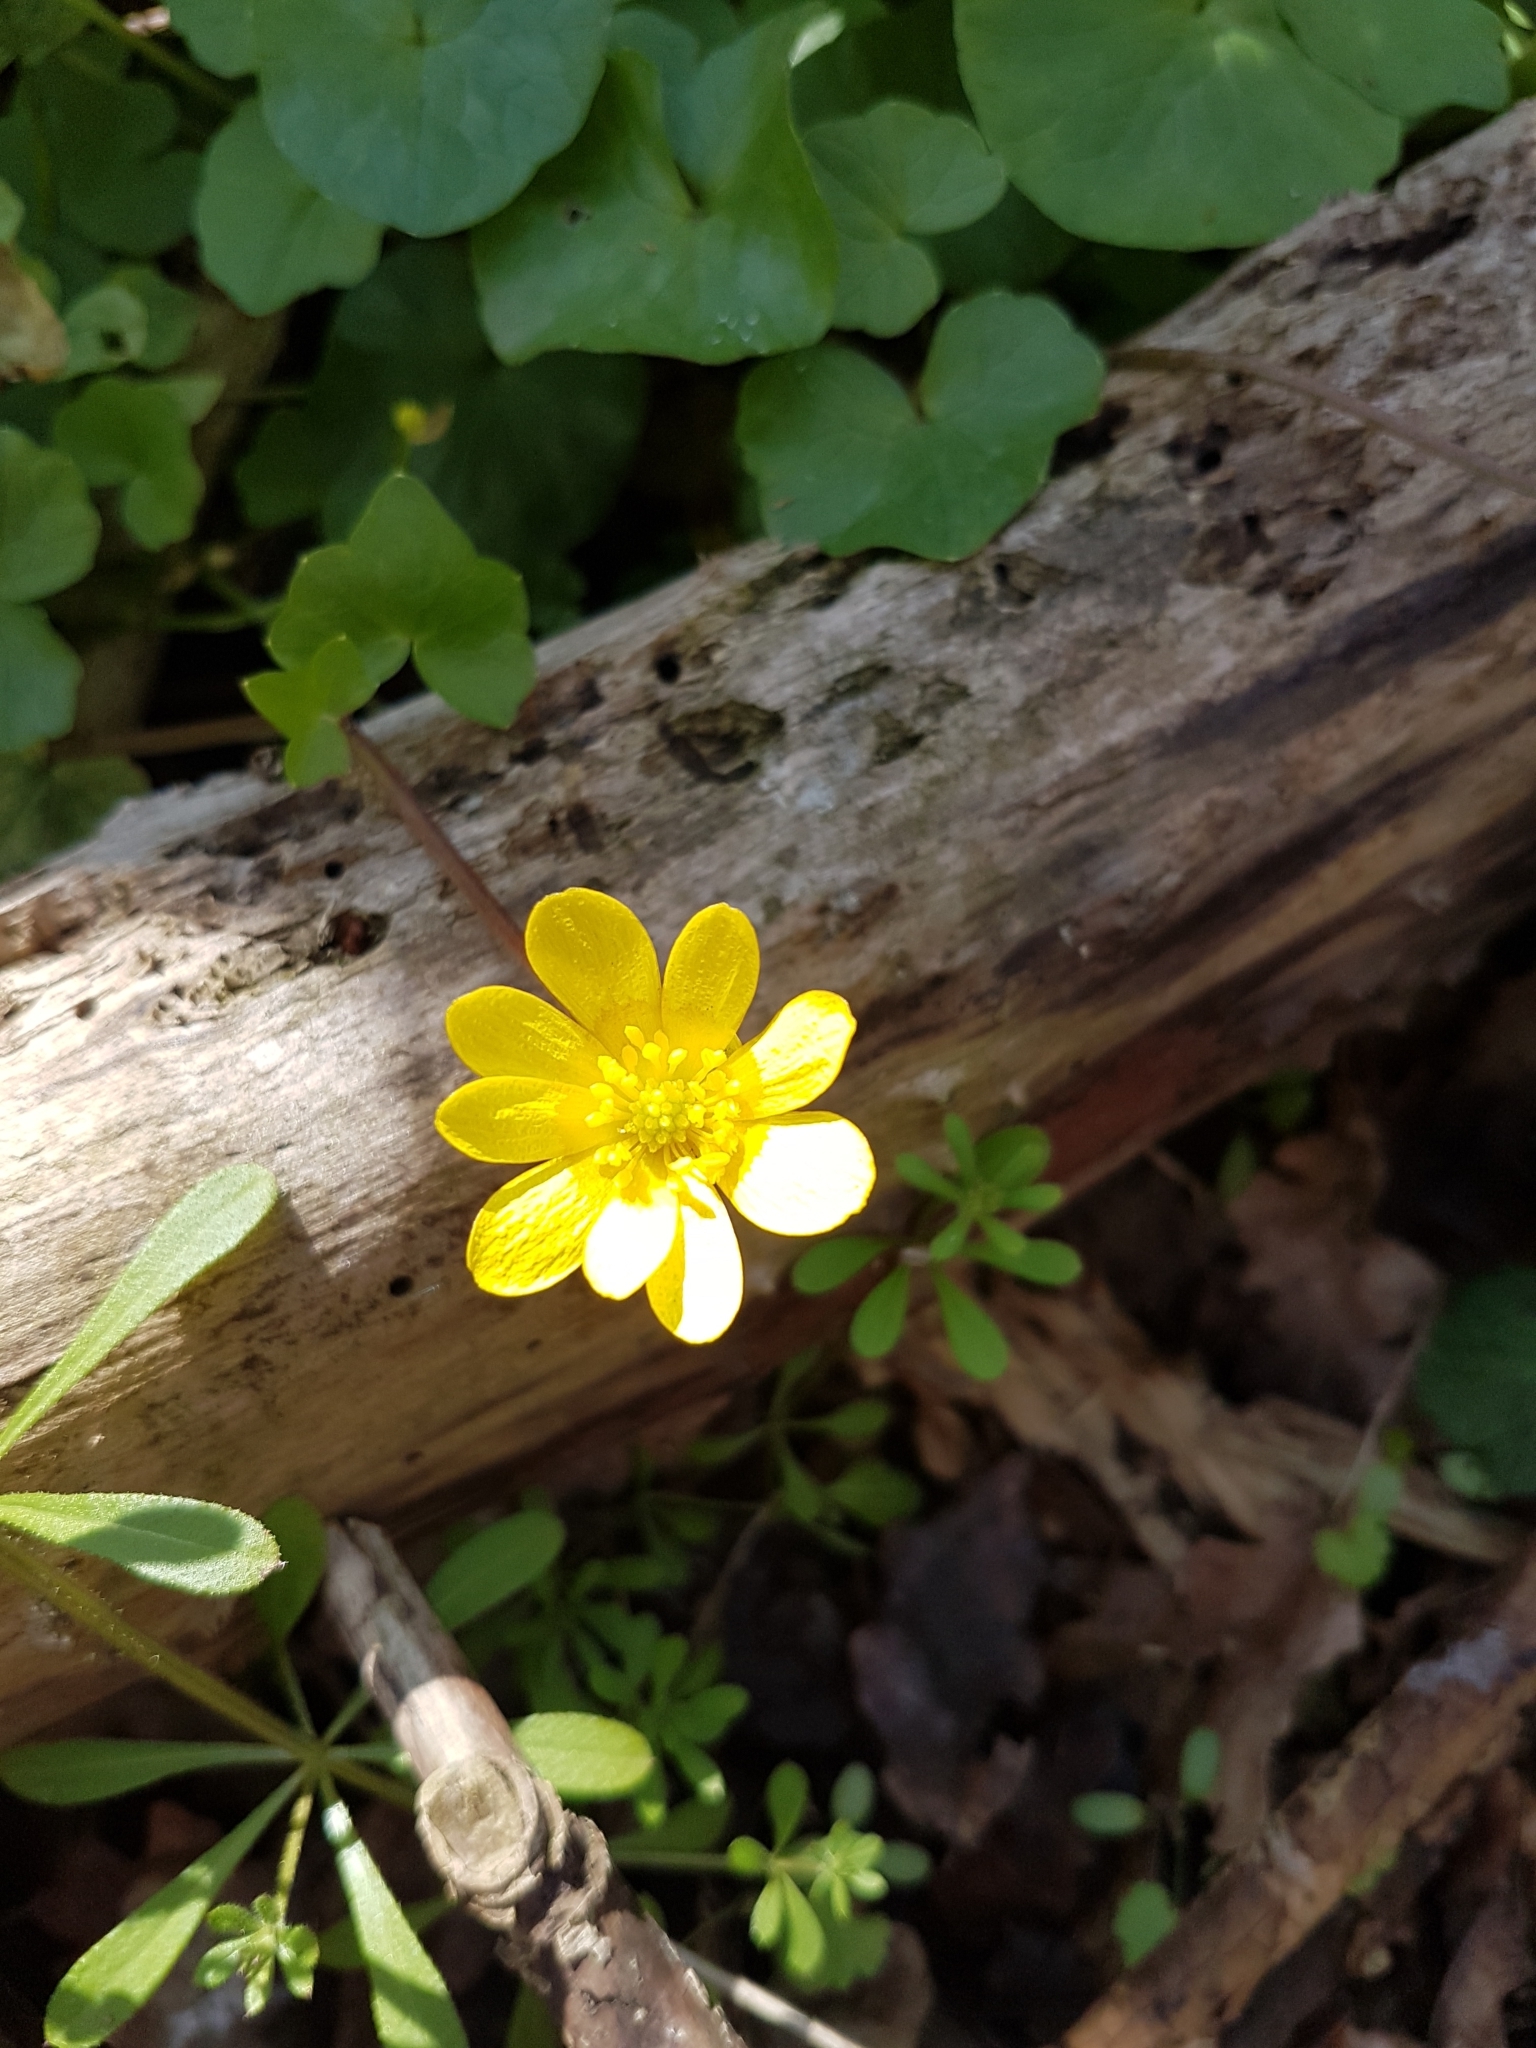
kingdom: Plantae
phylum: Tracheophyta
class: Magnoliopsida
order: Ranunculales
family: Ranunculaceae
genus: Ficaria
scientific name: Ficaria verna
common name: Lesser celandine
